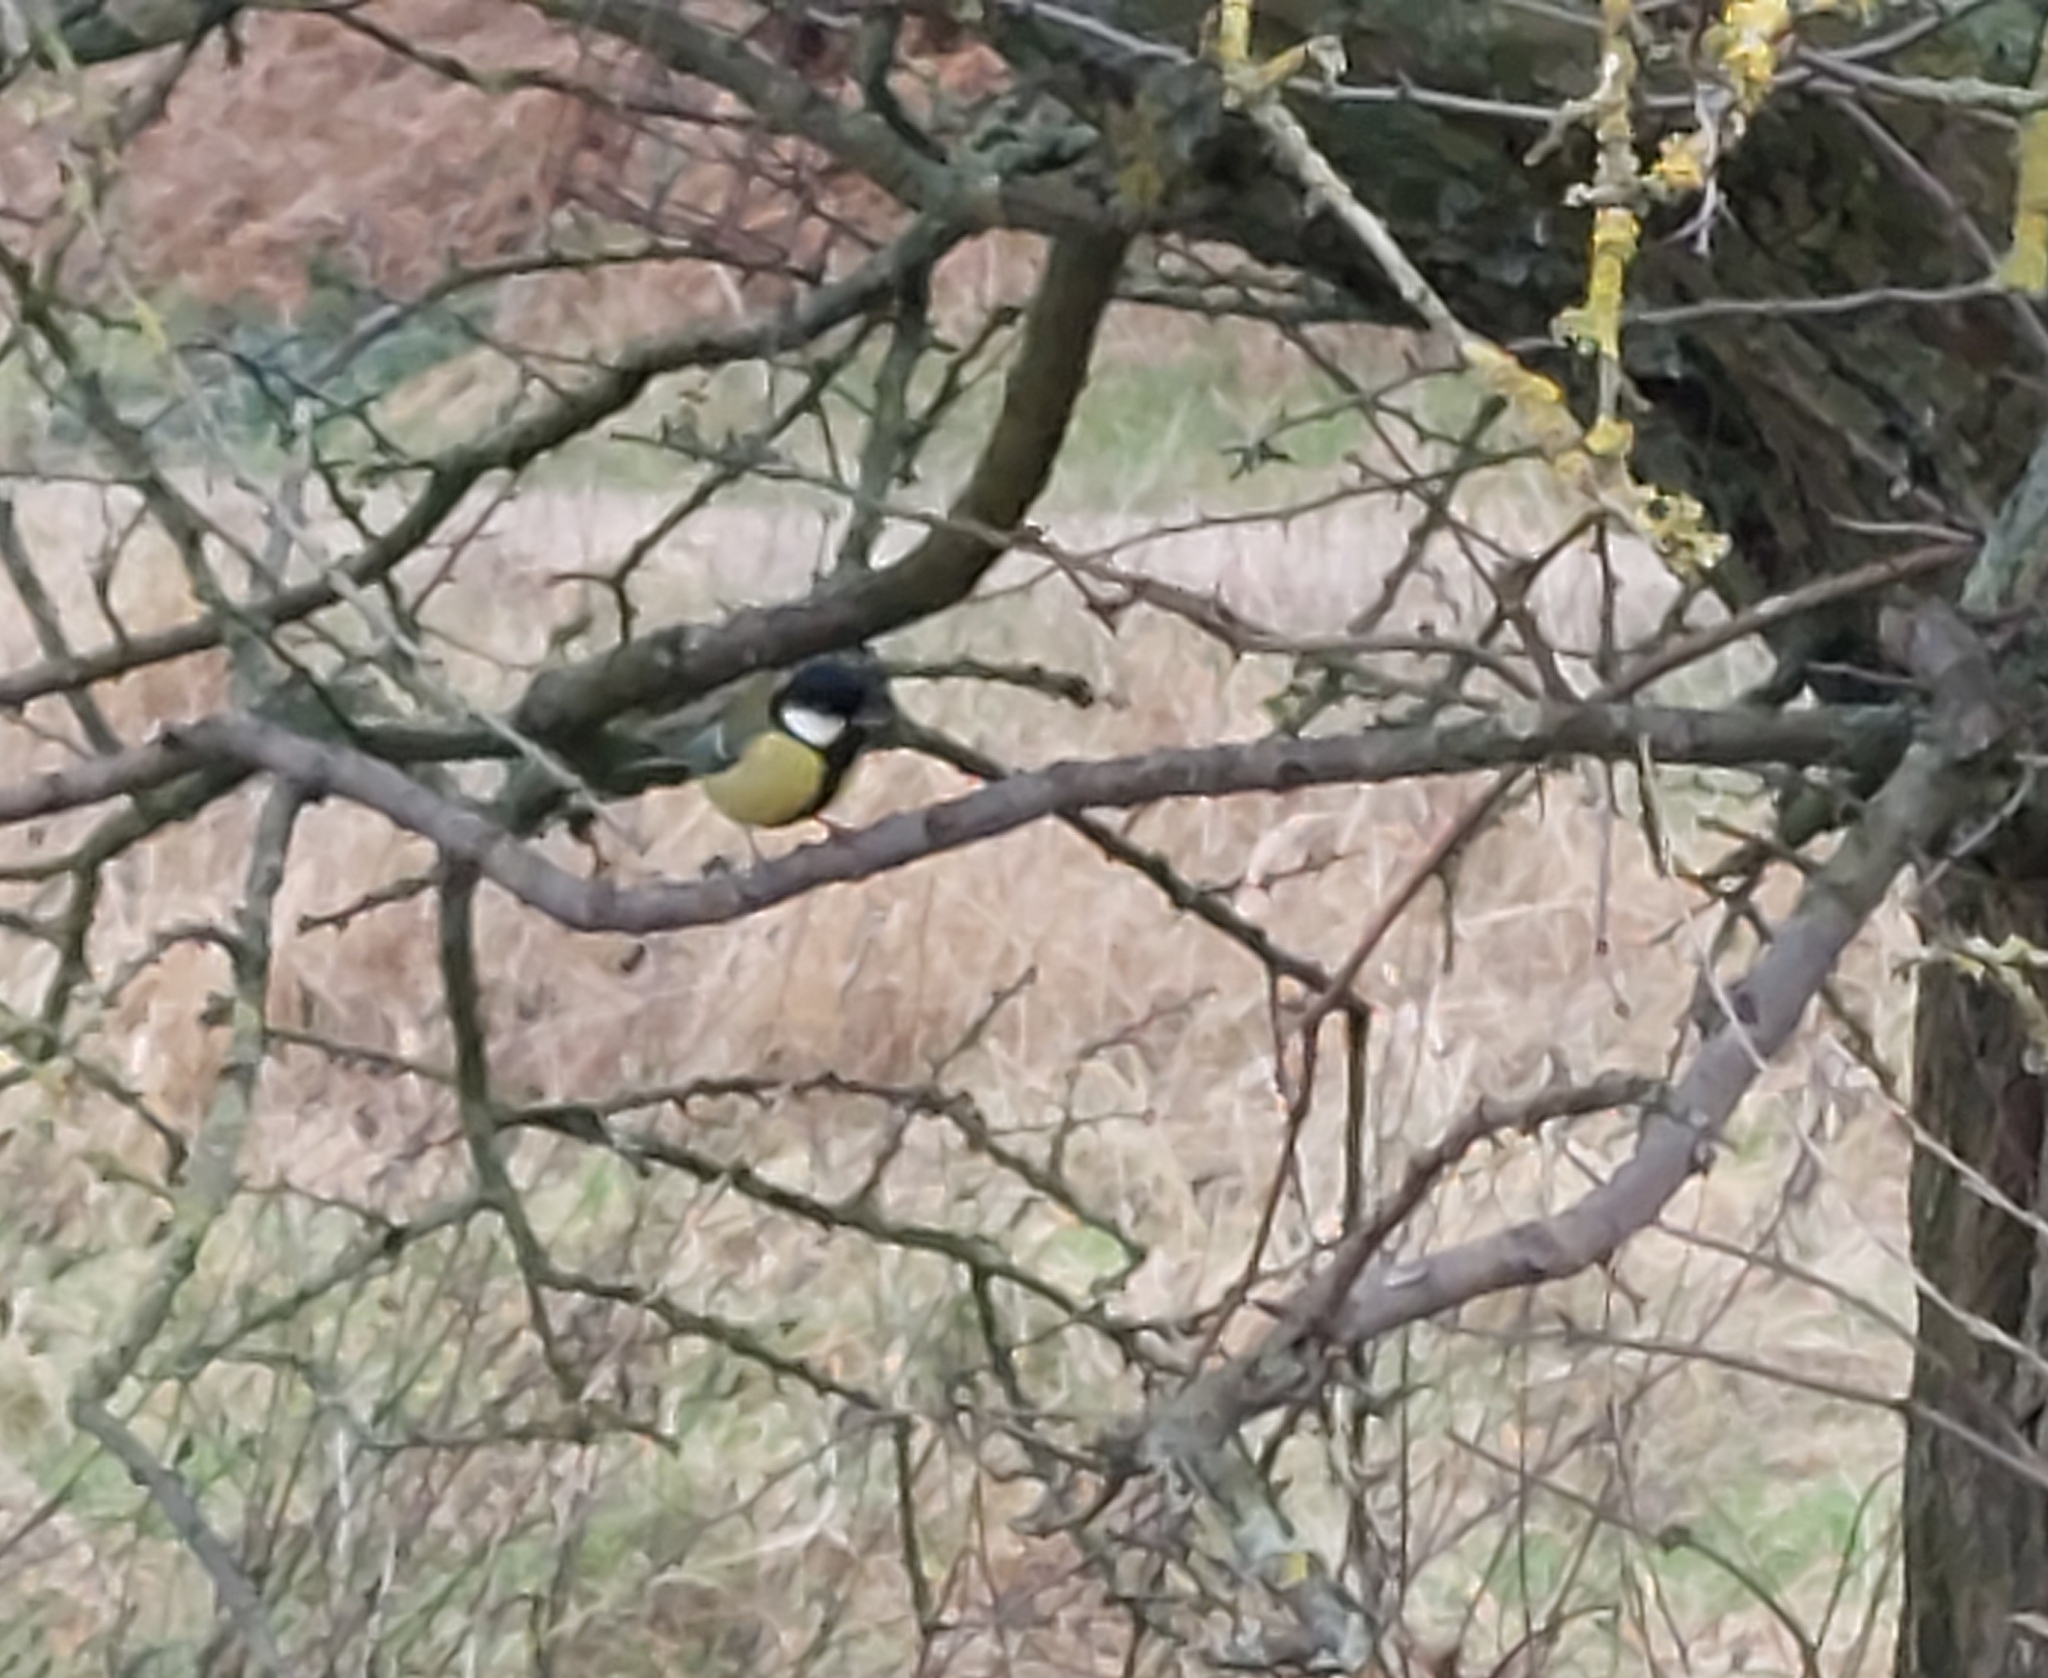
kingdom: Animalia
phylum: Chordata
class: Aves
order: Passeriformes
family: Paridae
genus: Parus
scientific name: Parus major
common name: Great tit
